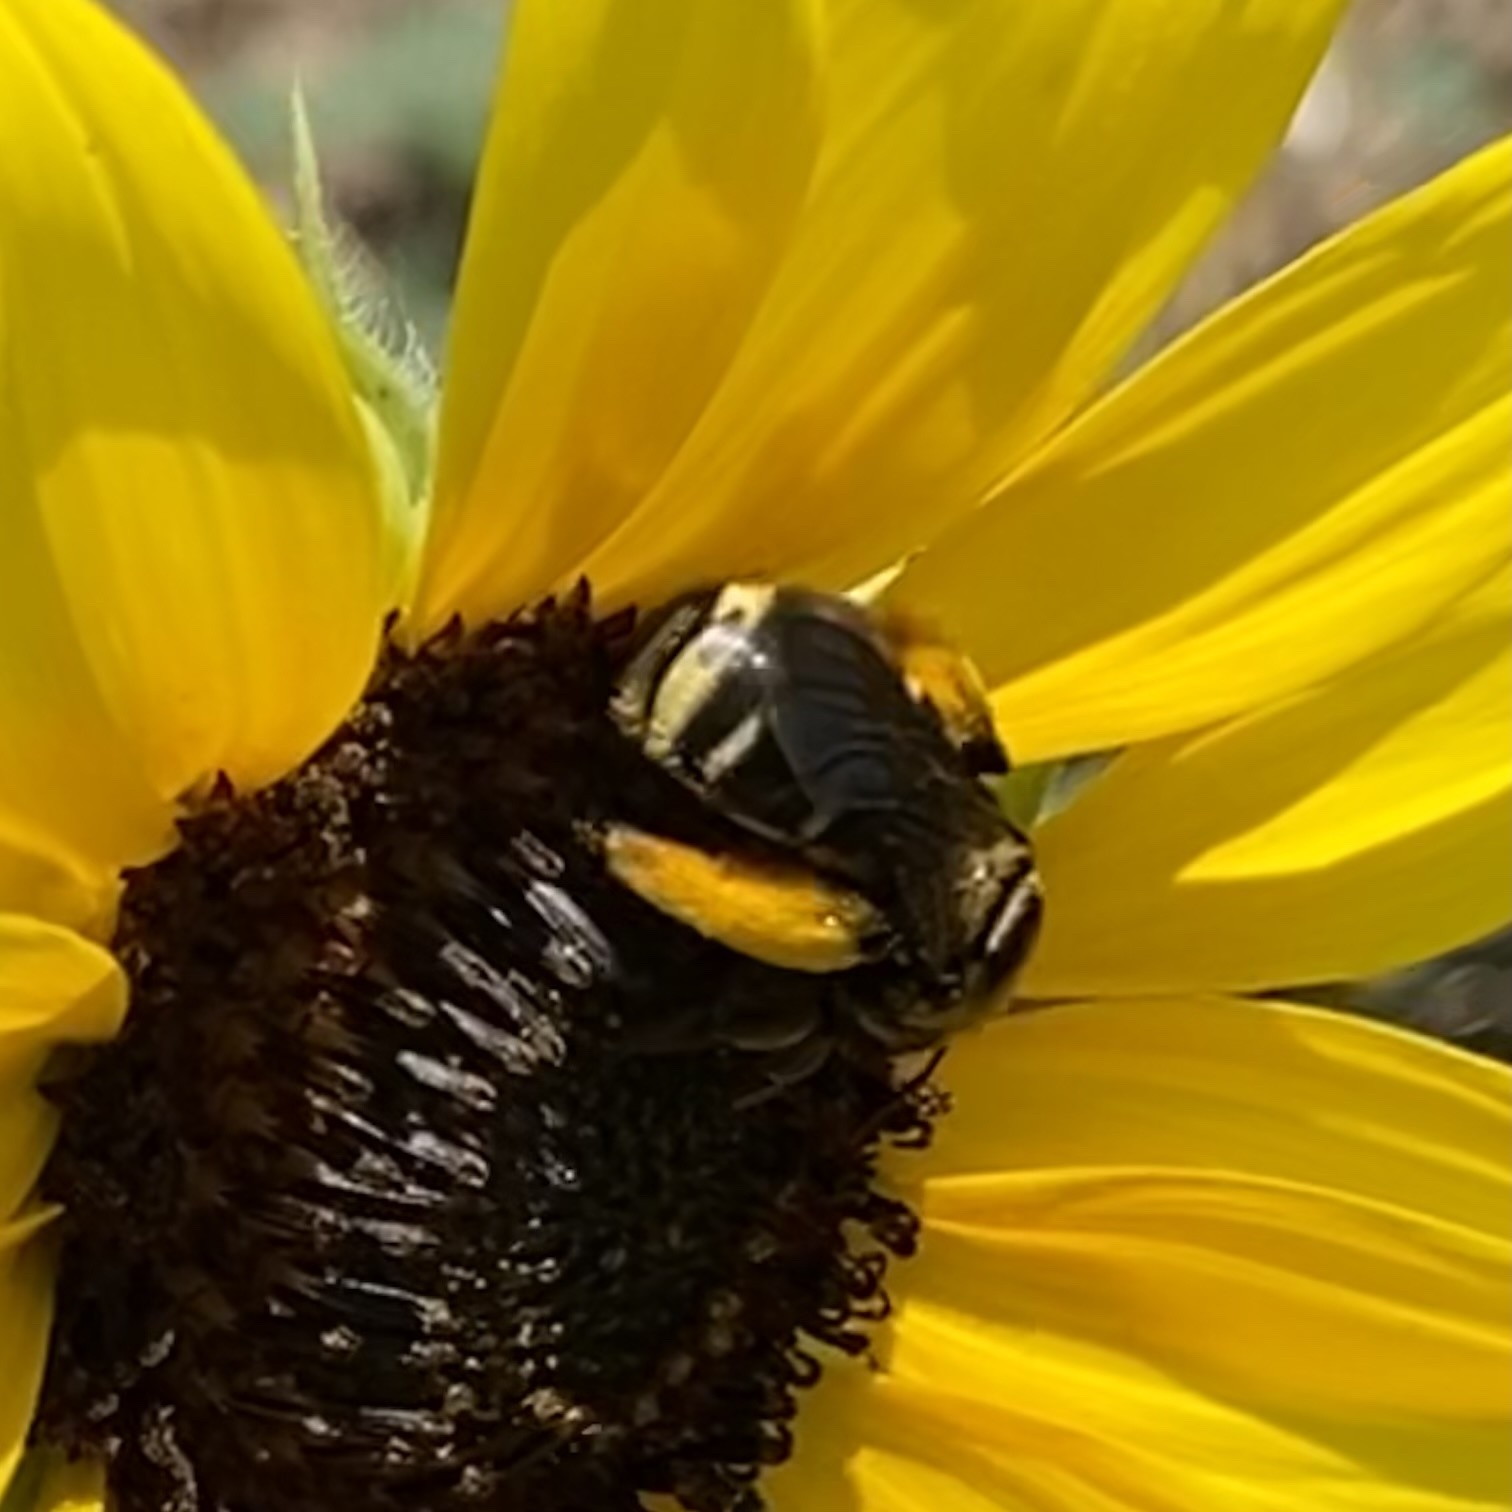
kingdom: Animalia
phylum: Arthropoda
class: Insecta
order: Hymenoptera
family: Apidae
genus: Svastra
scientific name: Svastra obliqua
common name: Oblique longhorn
